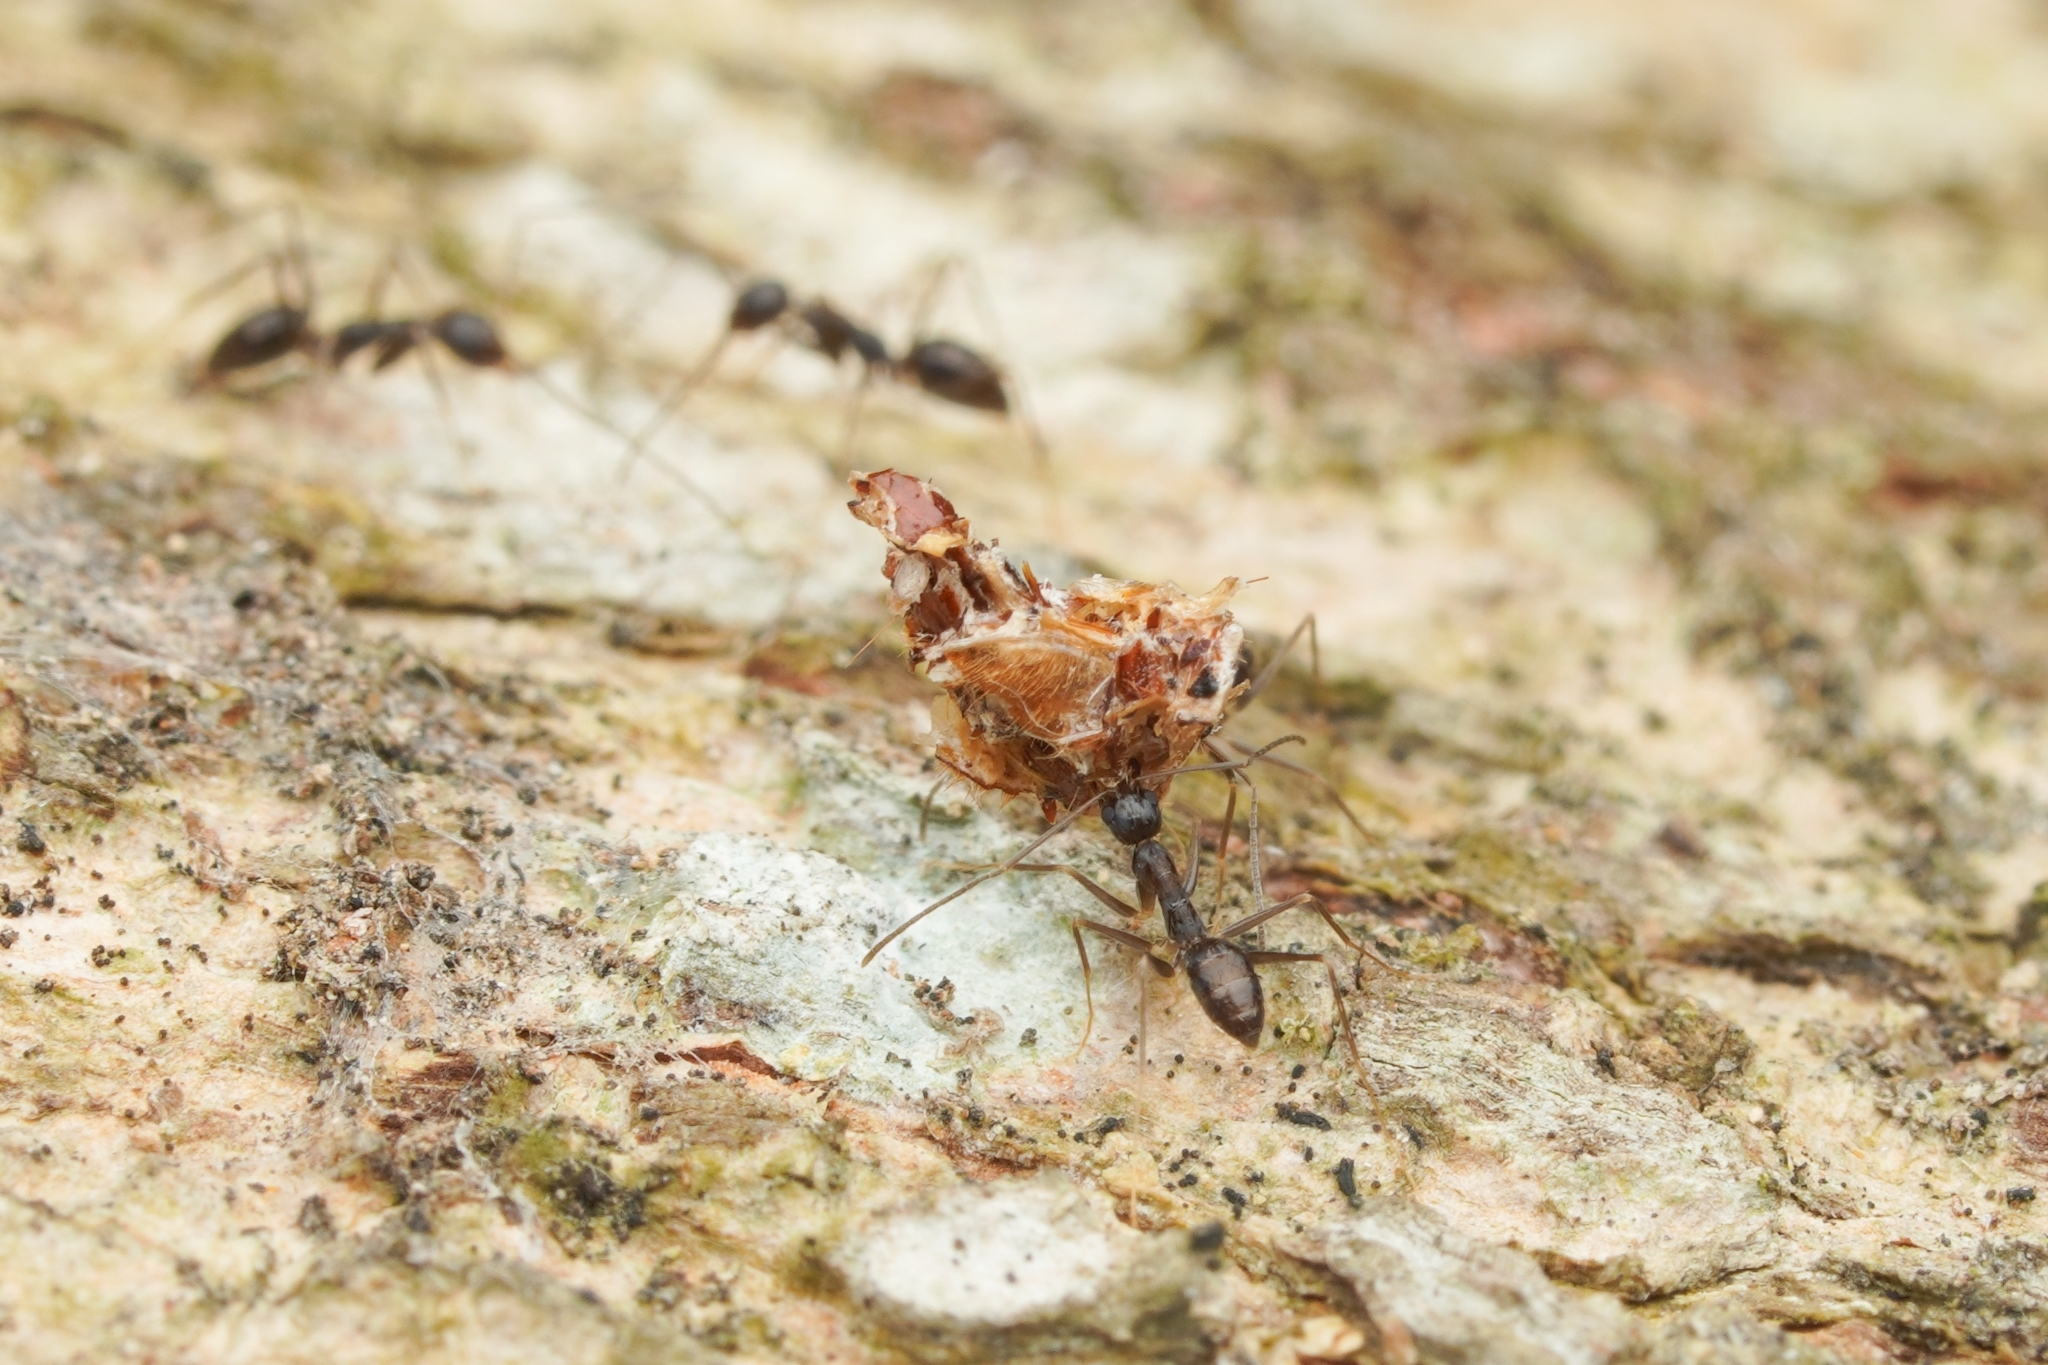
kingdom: Animalia
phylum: Arthropoda
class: Insecta
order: Hymenoptera
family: Formicidae
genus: Paratrechina
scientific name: Paratrechina longicornis
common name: Longhorned crazy ant
